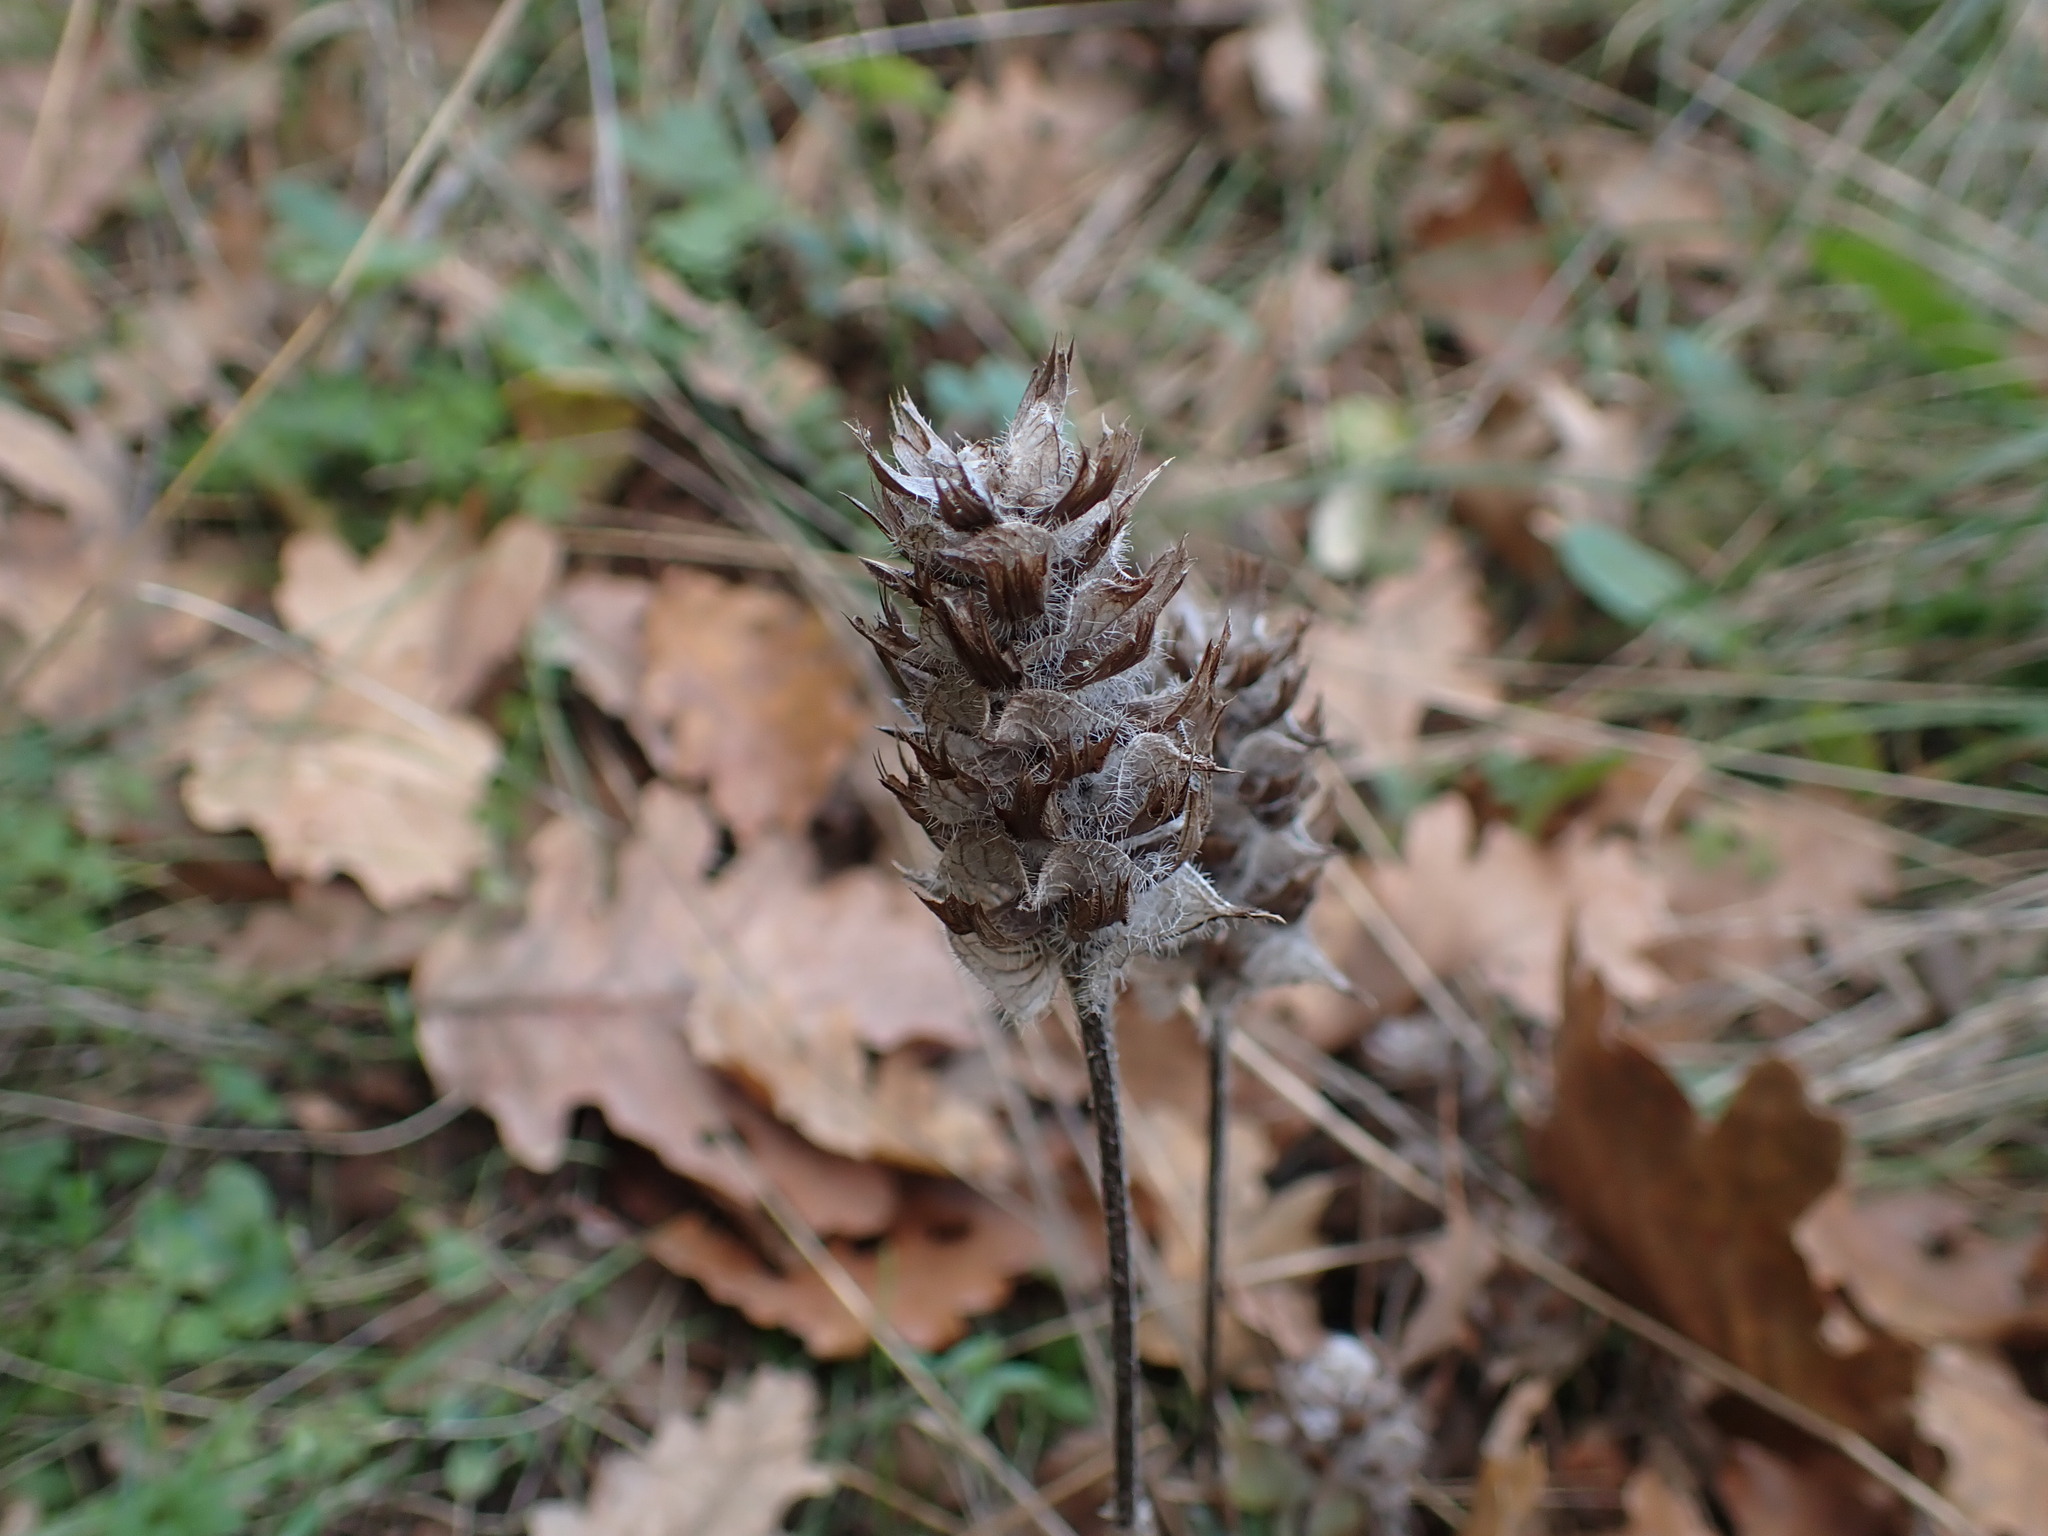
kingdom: Plantae
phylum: Tracheophyta
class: Magnoliopsida
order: Lamiales
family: Lamiaceae
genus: Prunella
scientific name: Prunella vulgaris
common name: Heal-all
